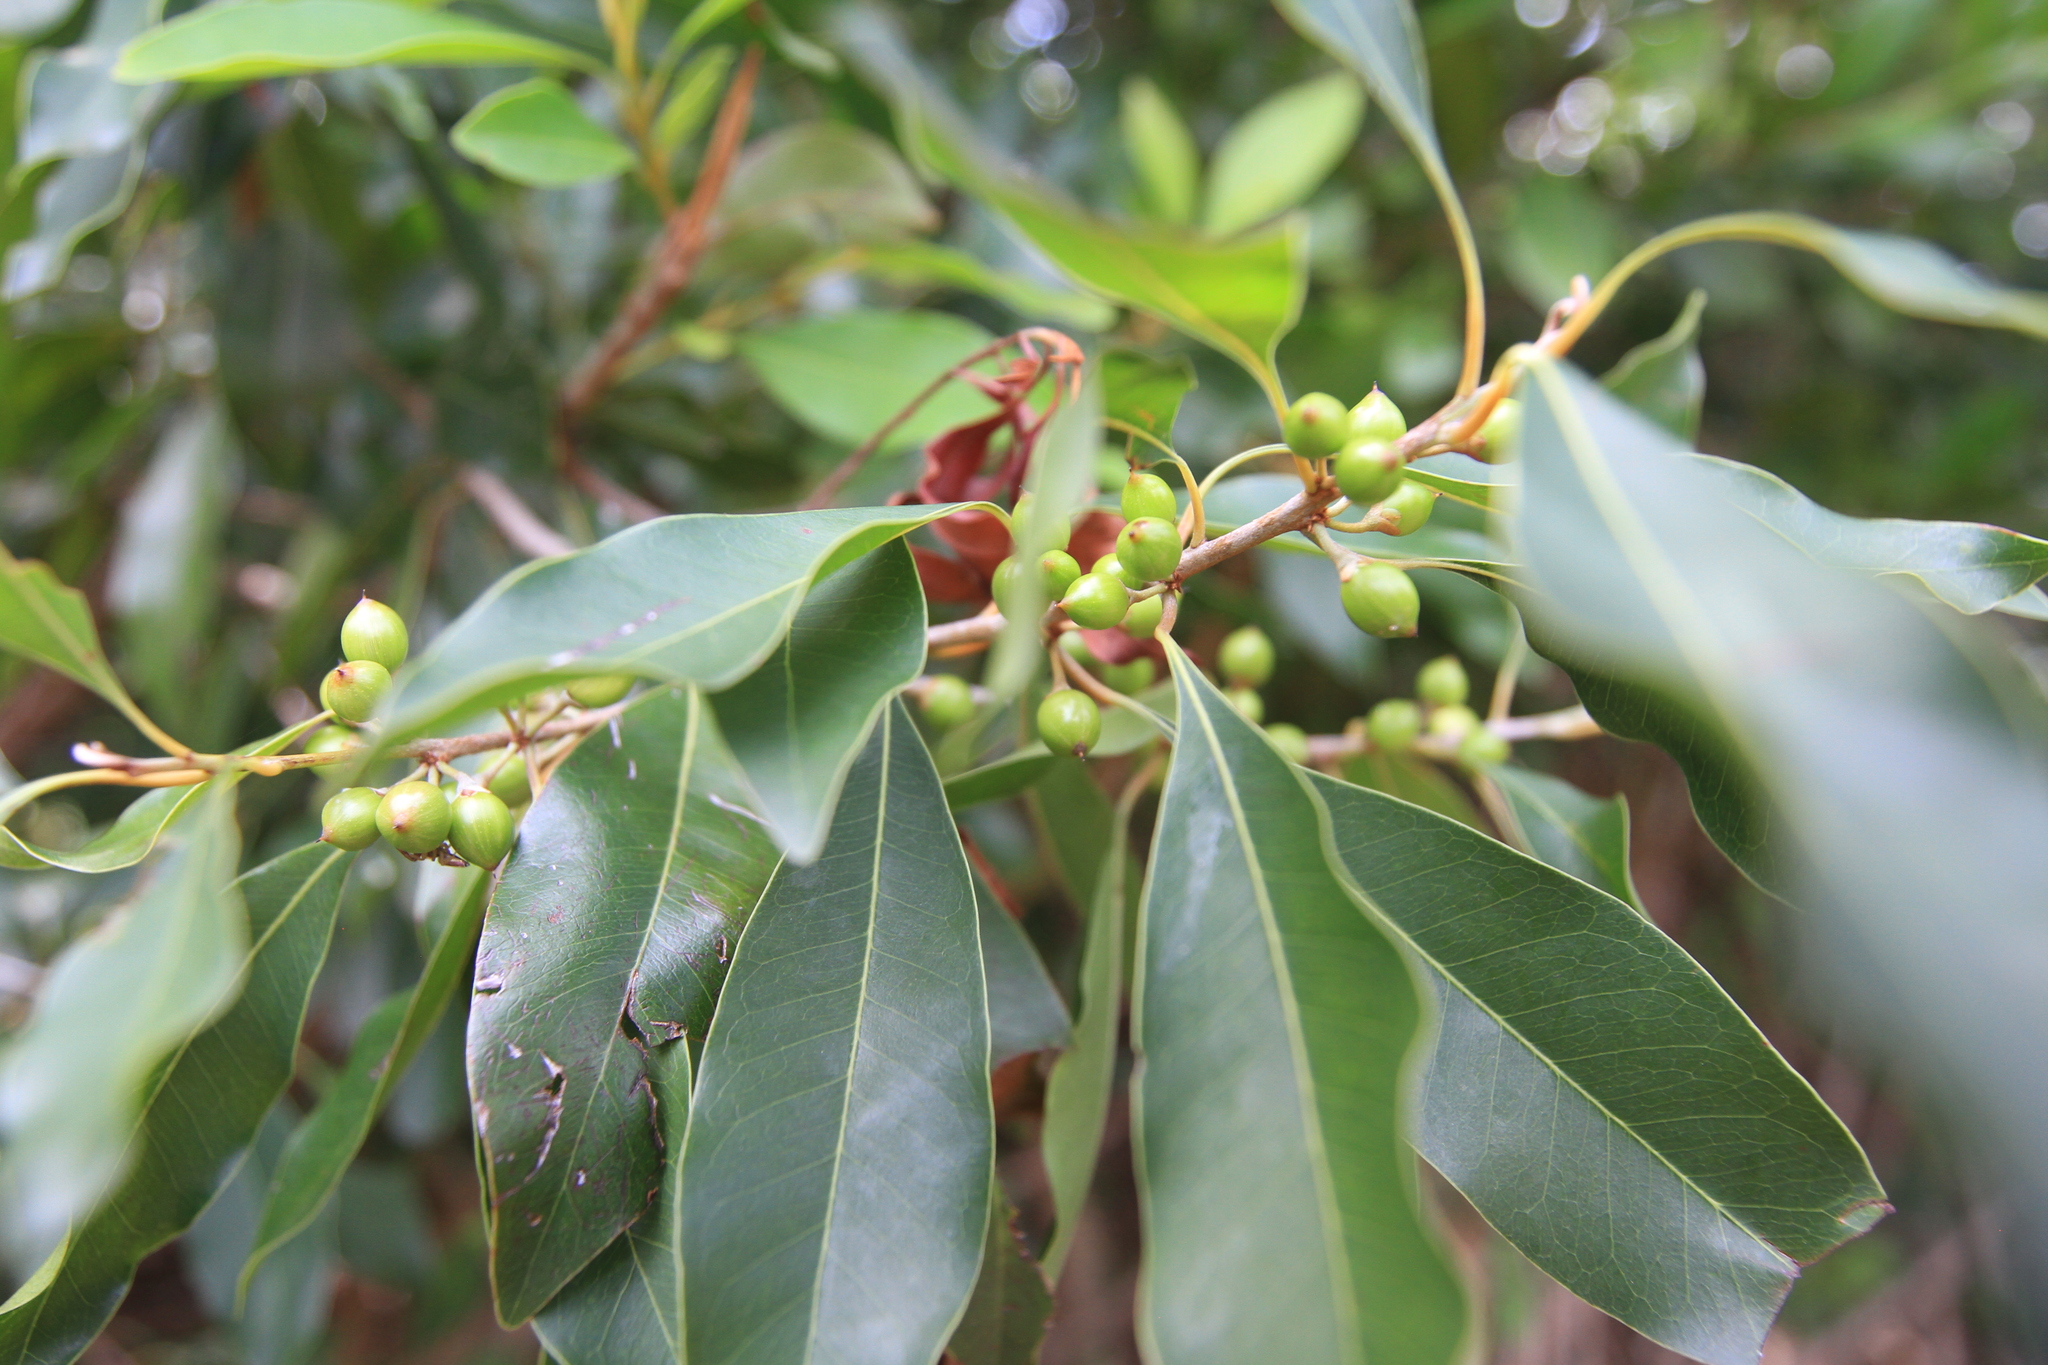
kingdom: Plantae
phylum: Tracheophyta
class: Magnoliopsida
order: Ericales
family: Sapotaceae
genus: Sideroxylon
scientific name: Sideroxylon salicifolium
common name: White bully
